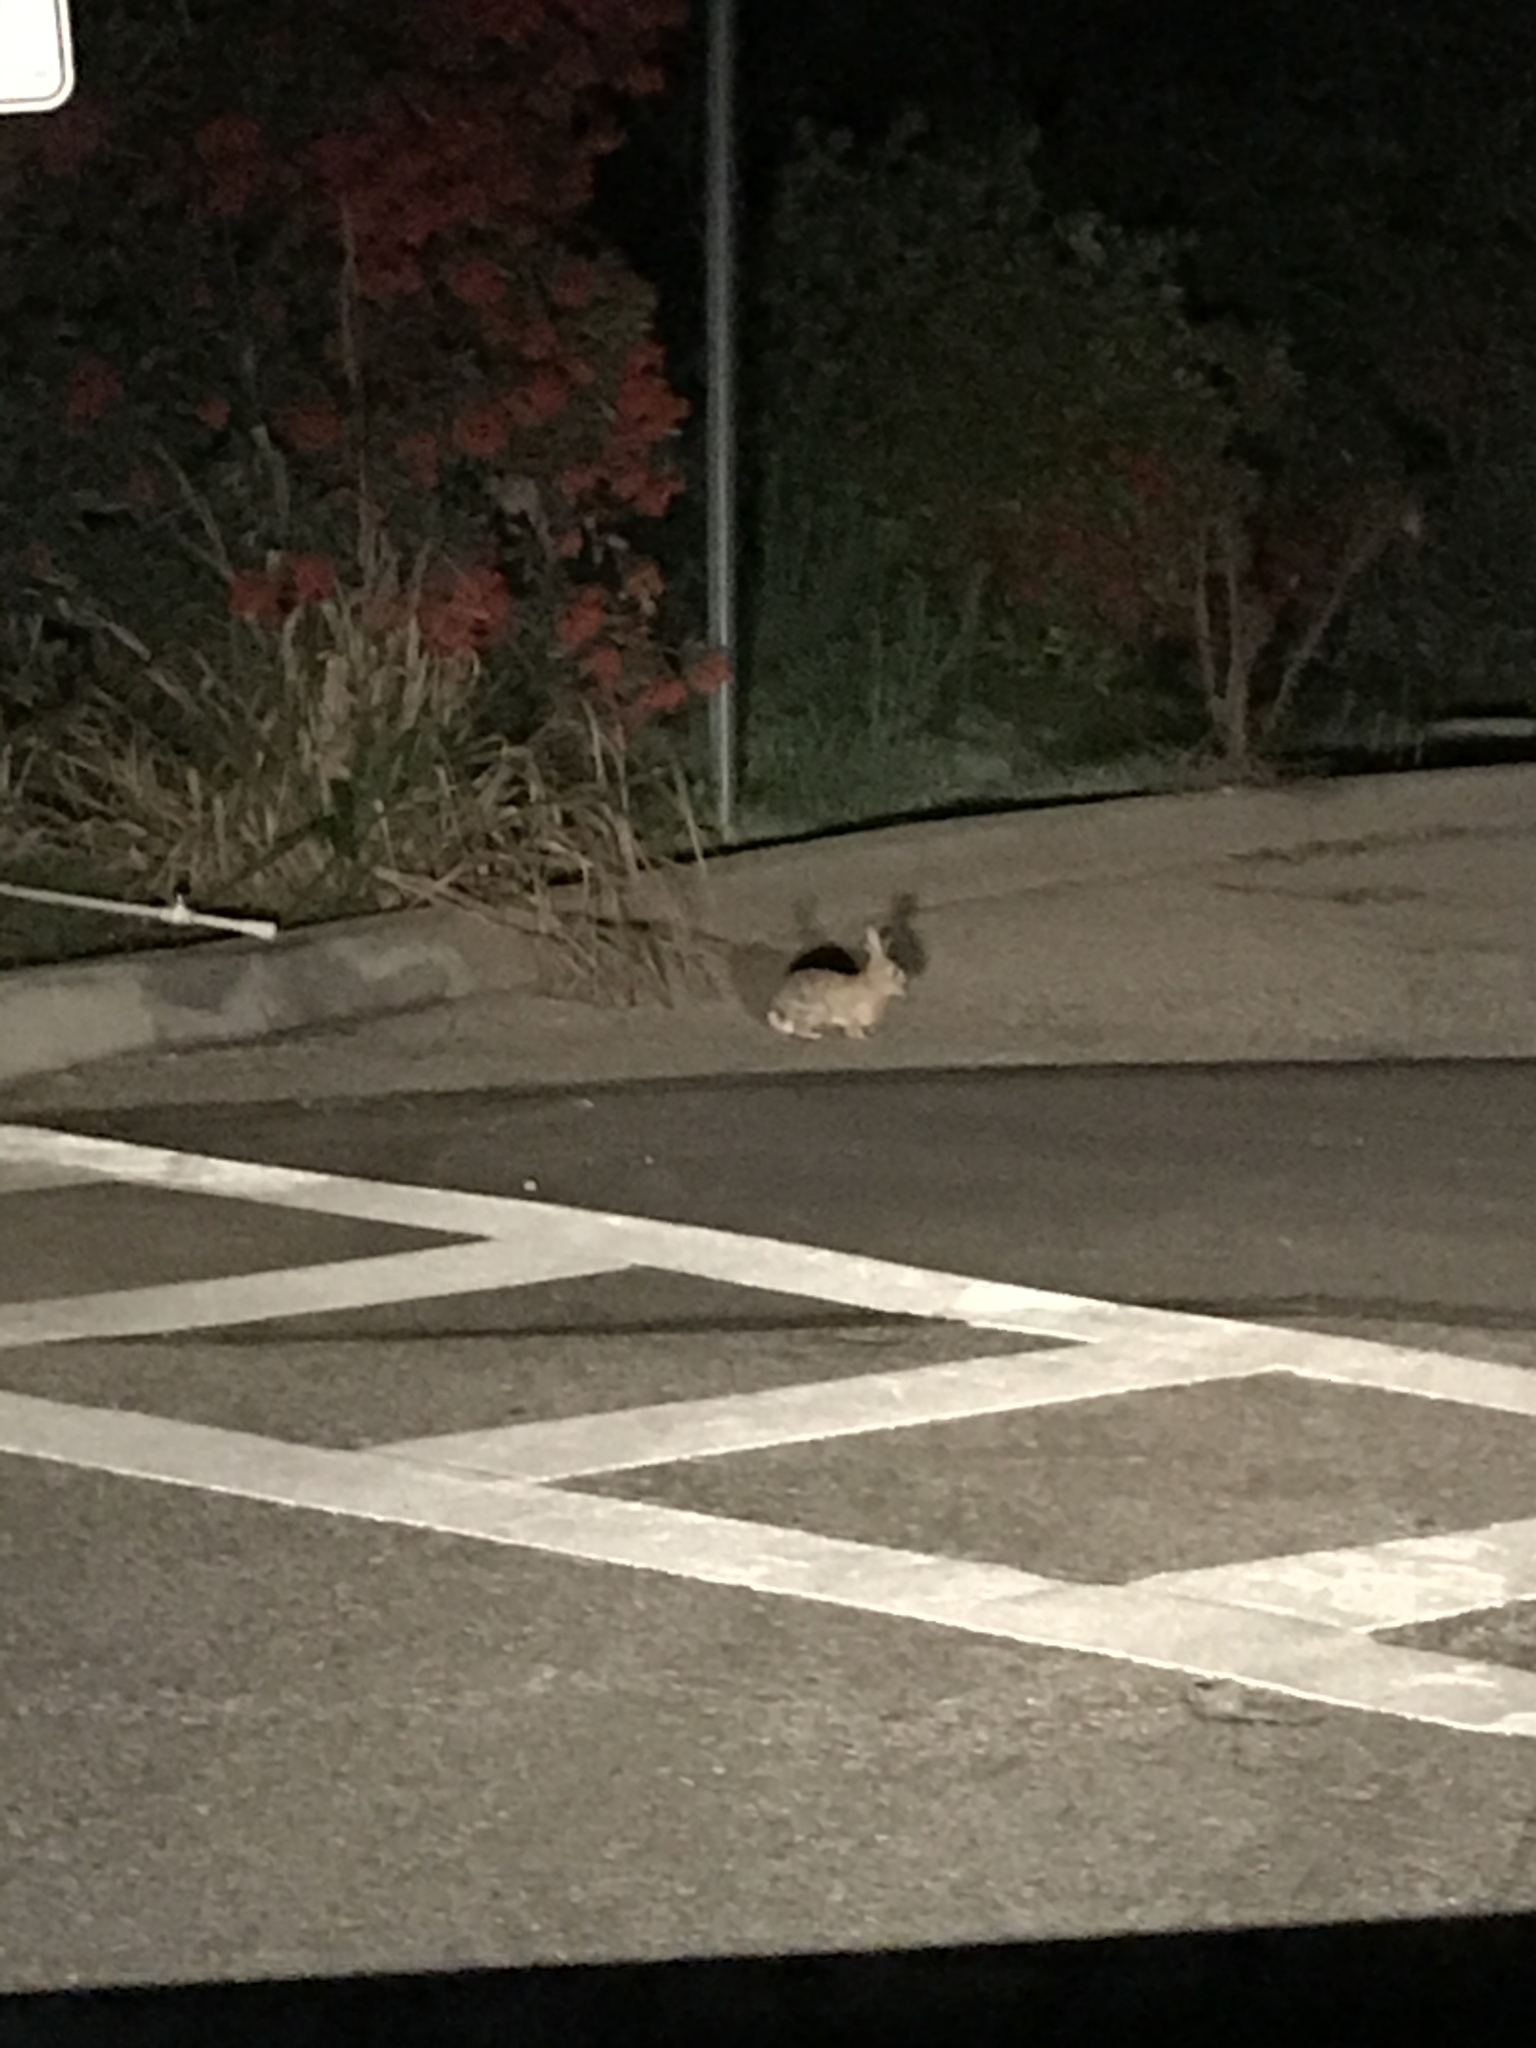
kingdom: Animalia
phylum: Chordata
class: Mammalia
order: Lagomorpha
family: Leporidae
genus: Sylvilagus
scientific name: Sylvilagus audubonii
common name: Desert cottontail
